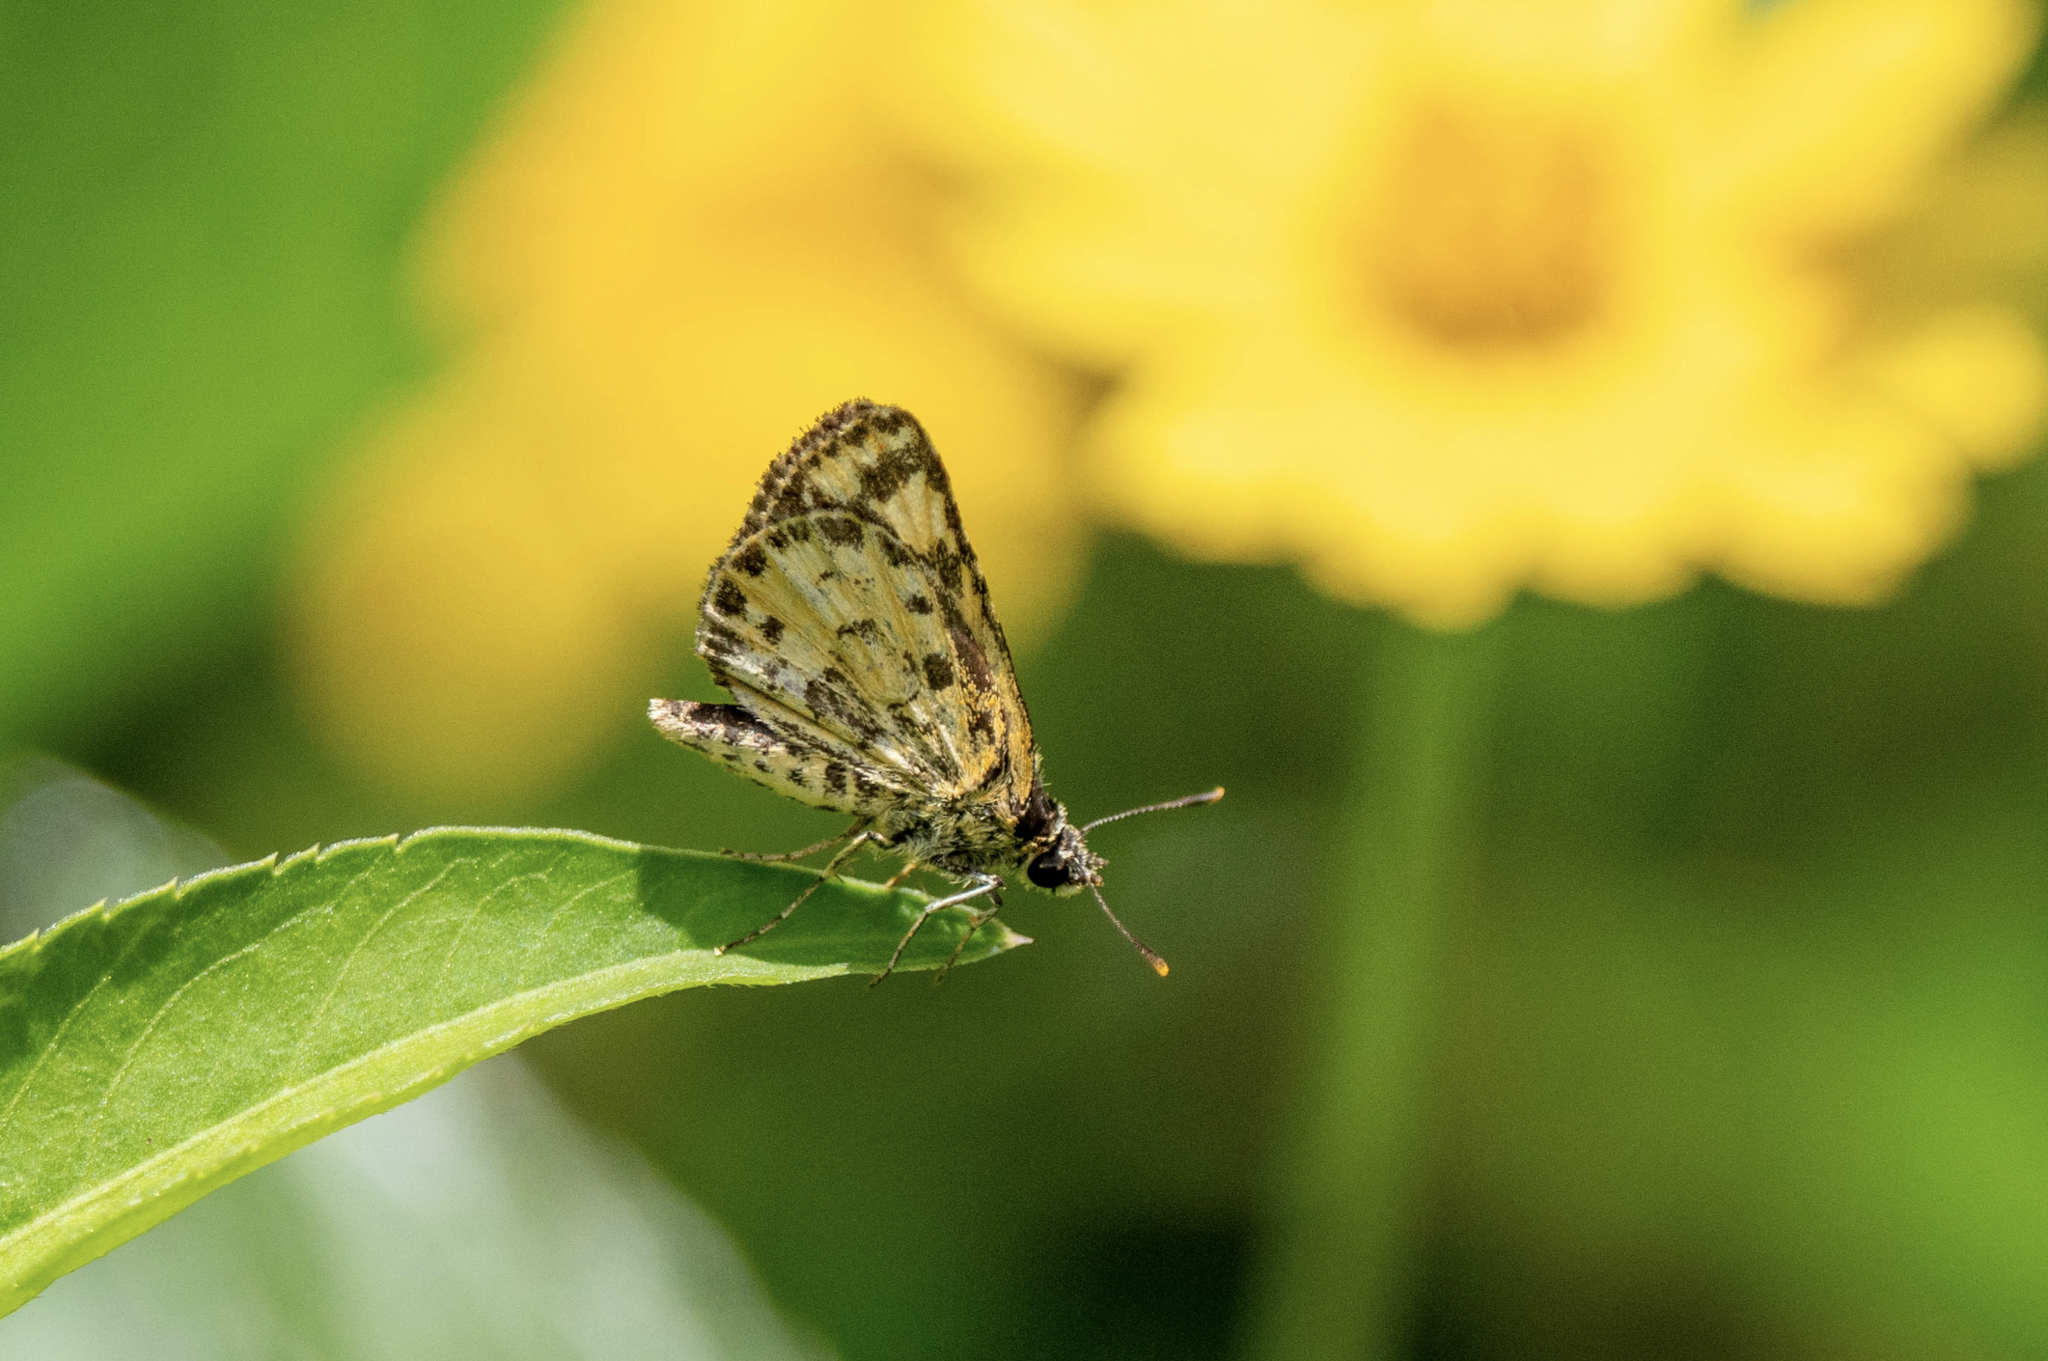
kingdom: Animalia
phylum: Arthropoda
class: Insecta
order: Lepidoptera
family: Hesperiidae
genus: Ampittia
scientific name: Ampittia dioscorides
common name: Common bush hopper
